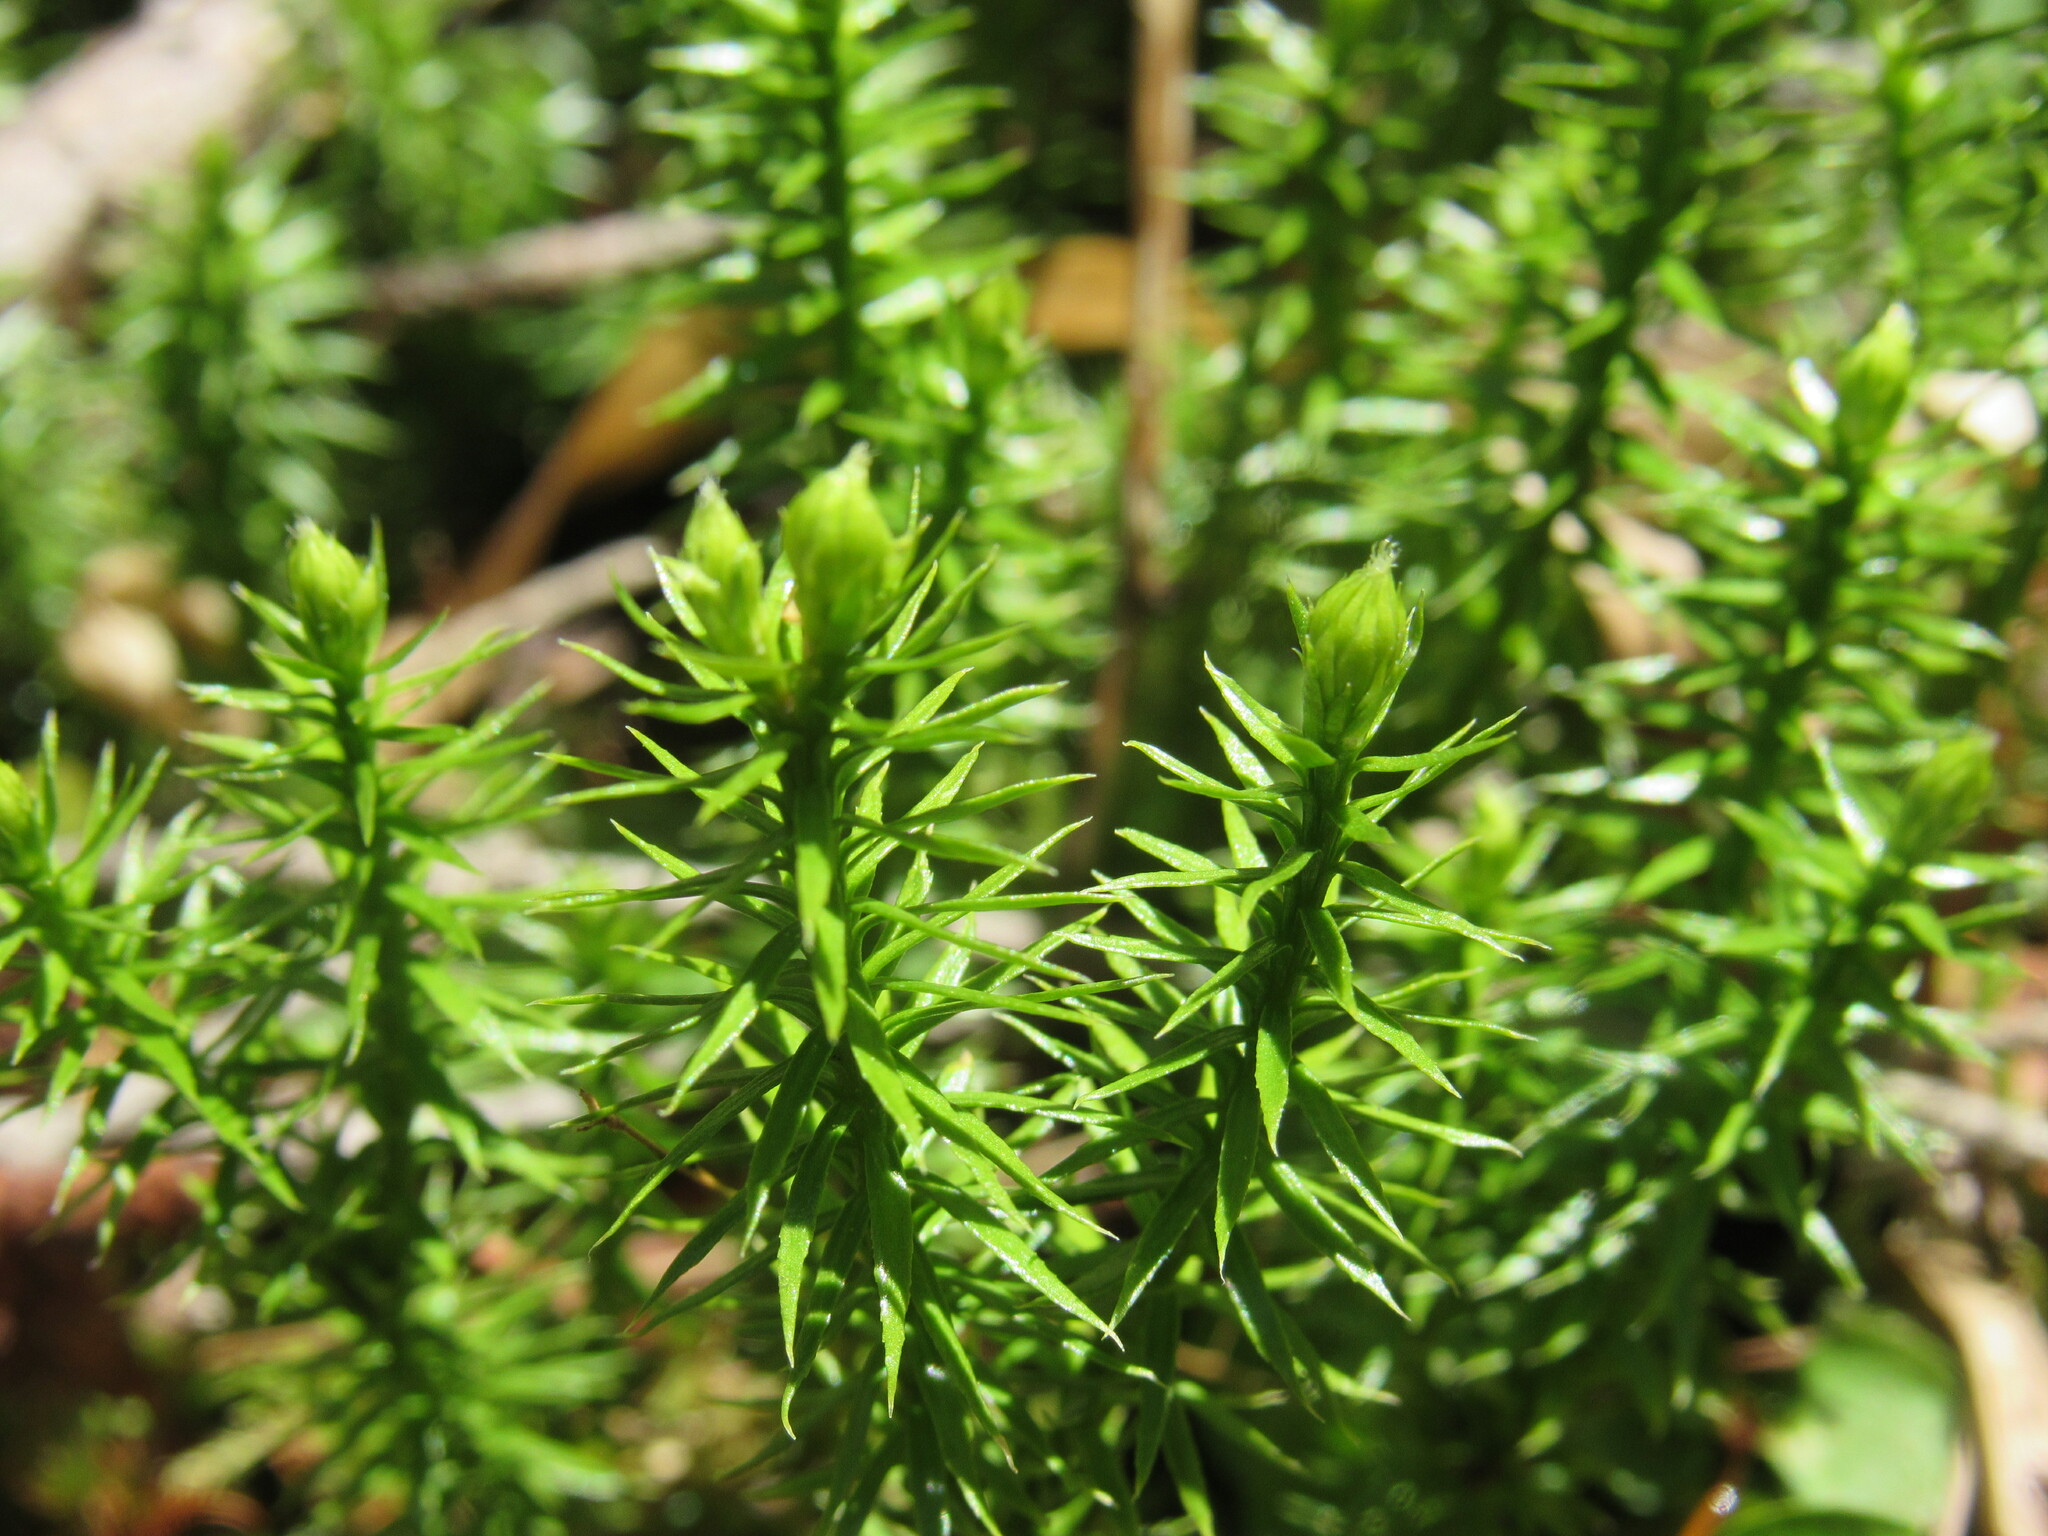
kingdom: Plantae
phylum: Tracheophyta
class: Lycopodiopsida
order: Lycopodiales
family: Lycopodiaceae
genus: Spinulum
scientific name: Spinulum annotinum
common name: Interrupted club-moss
